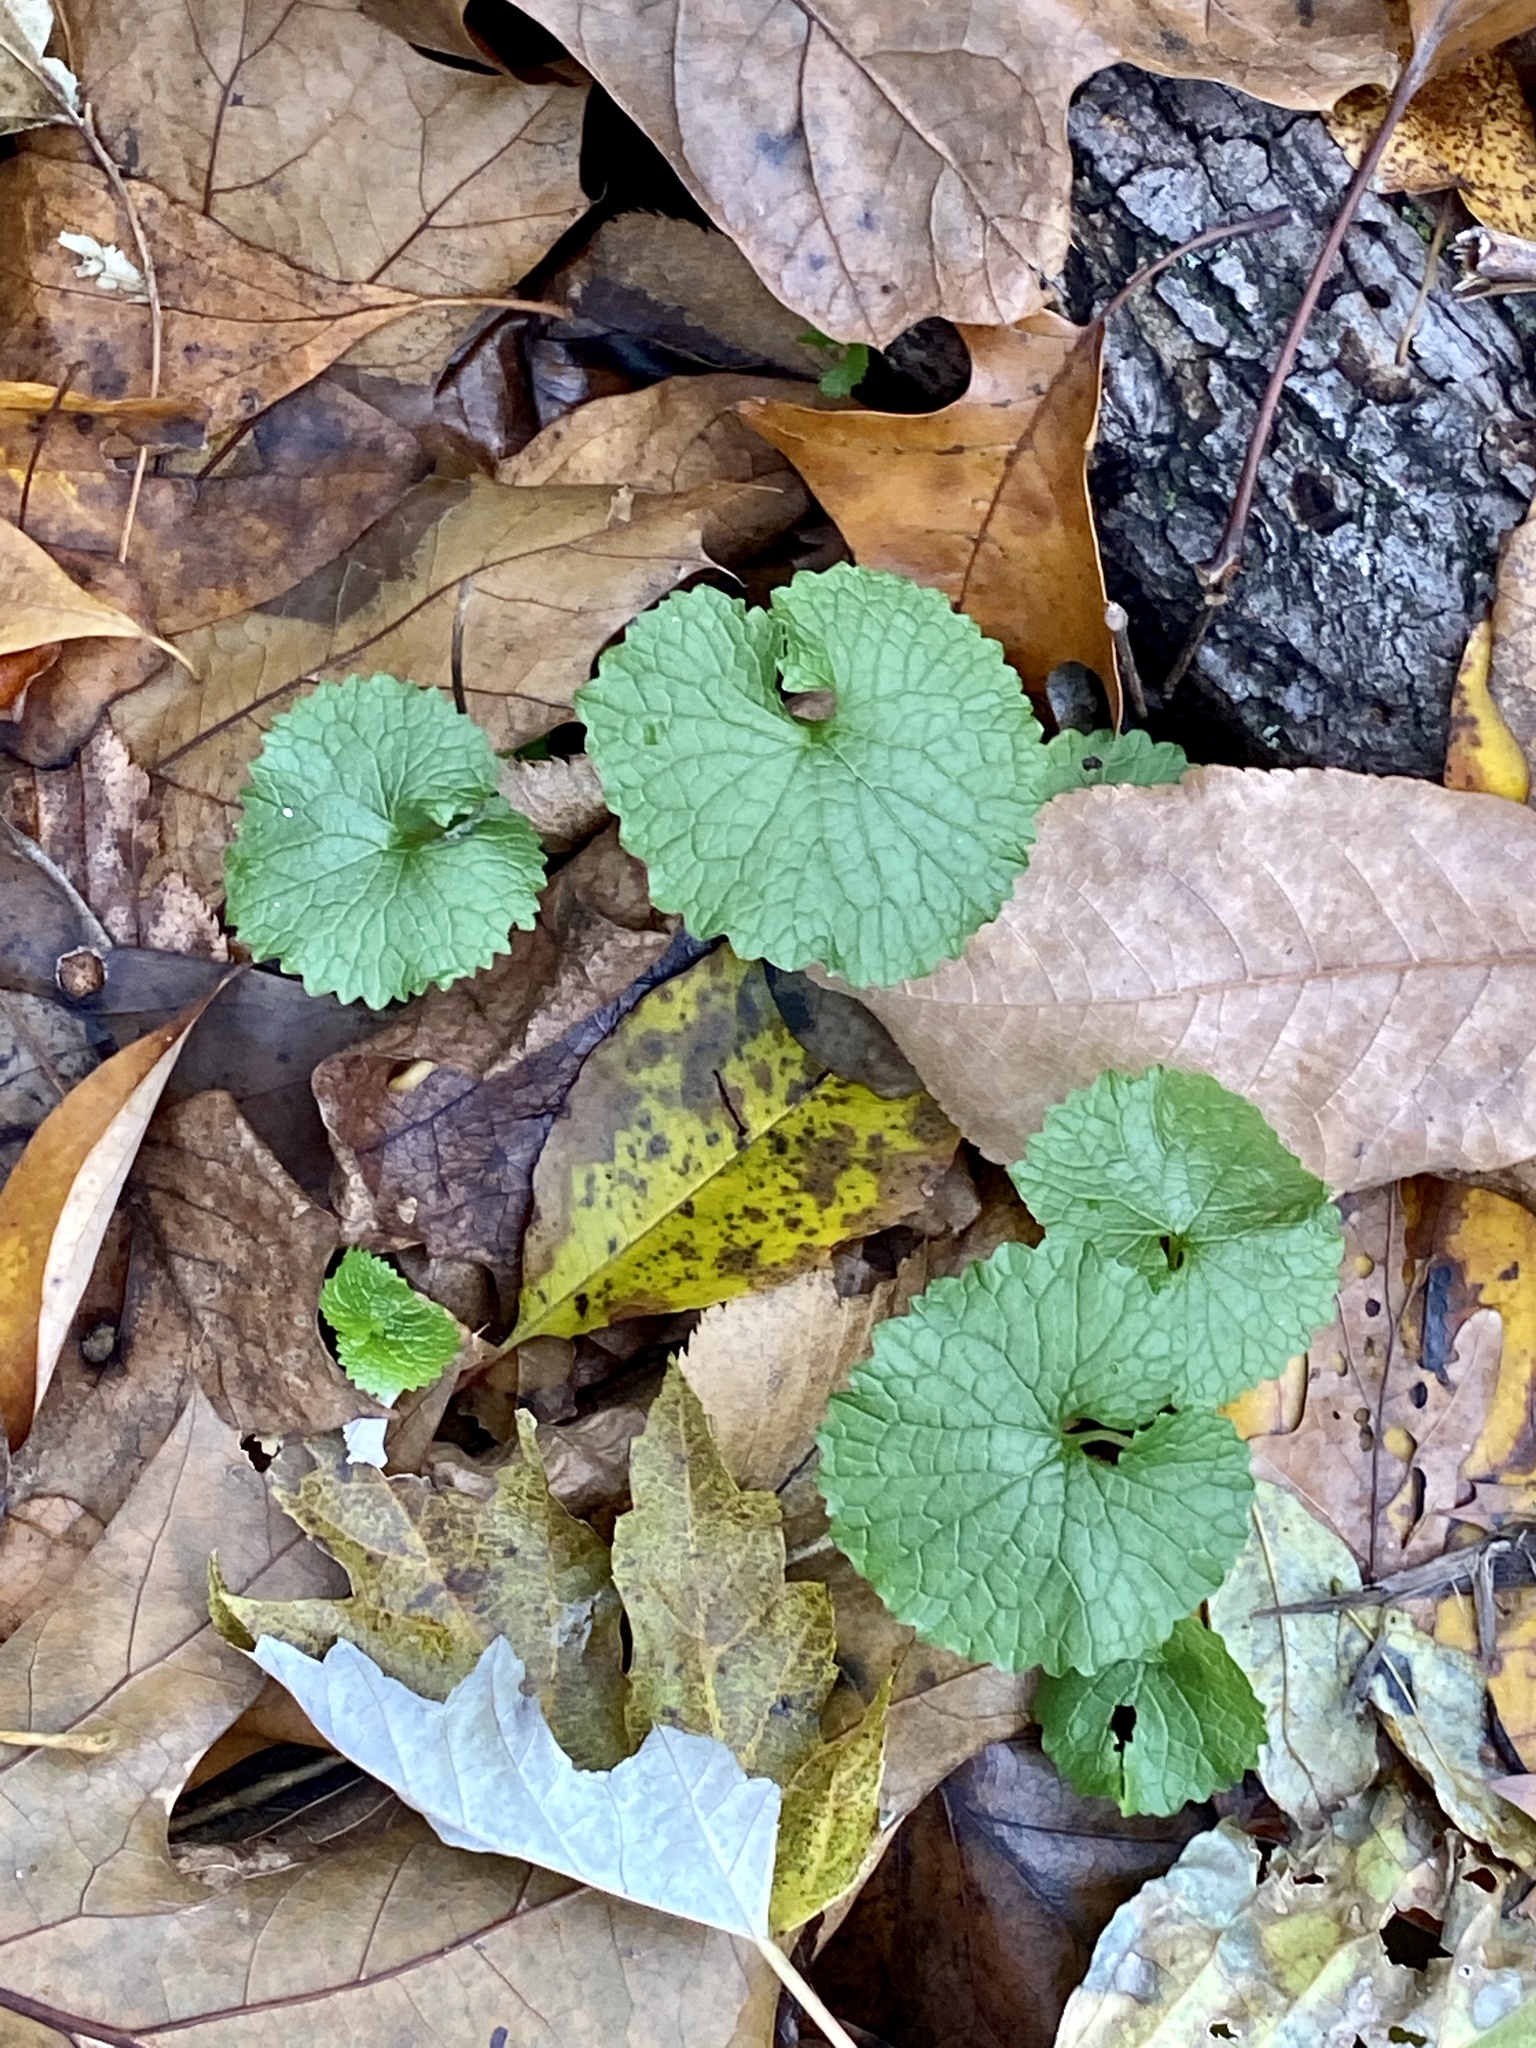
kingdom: Plantae
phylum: Tracheophyta
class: Magnoliopsida
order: Brassicales
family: Brassicaceae
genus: Alliaria
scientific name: Alliaria petiolata
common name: Garlic mustard
